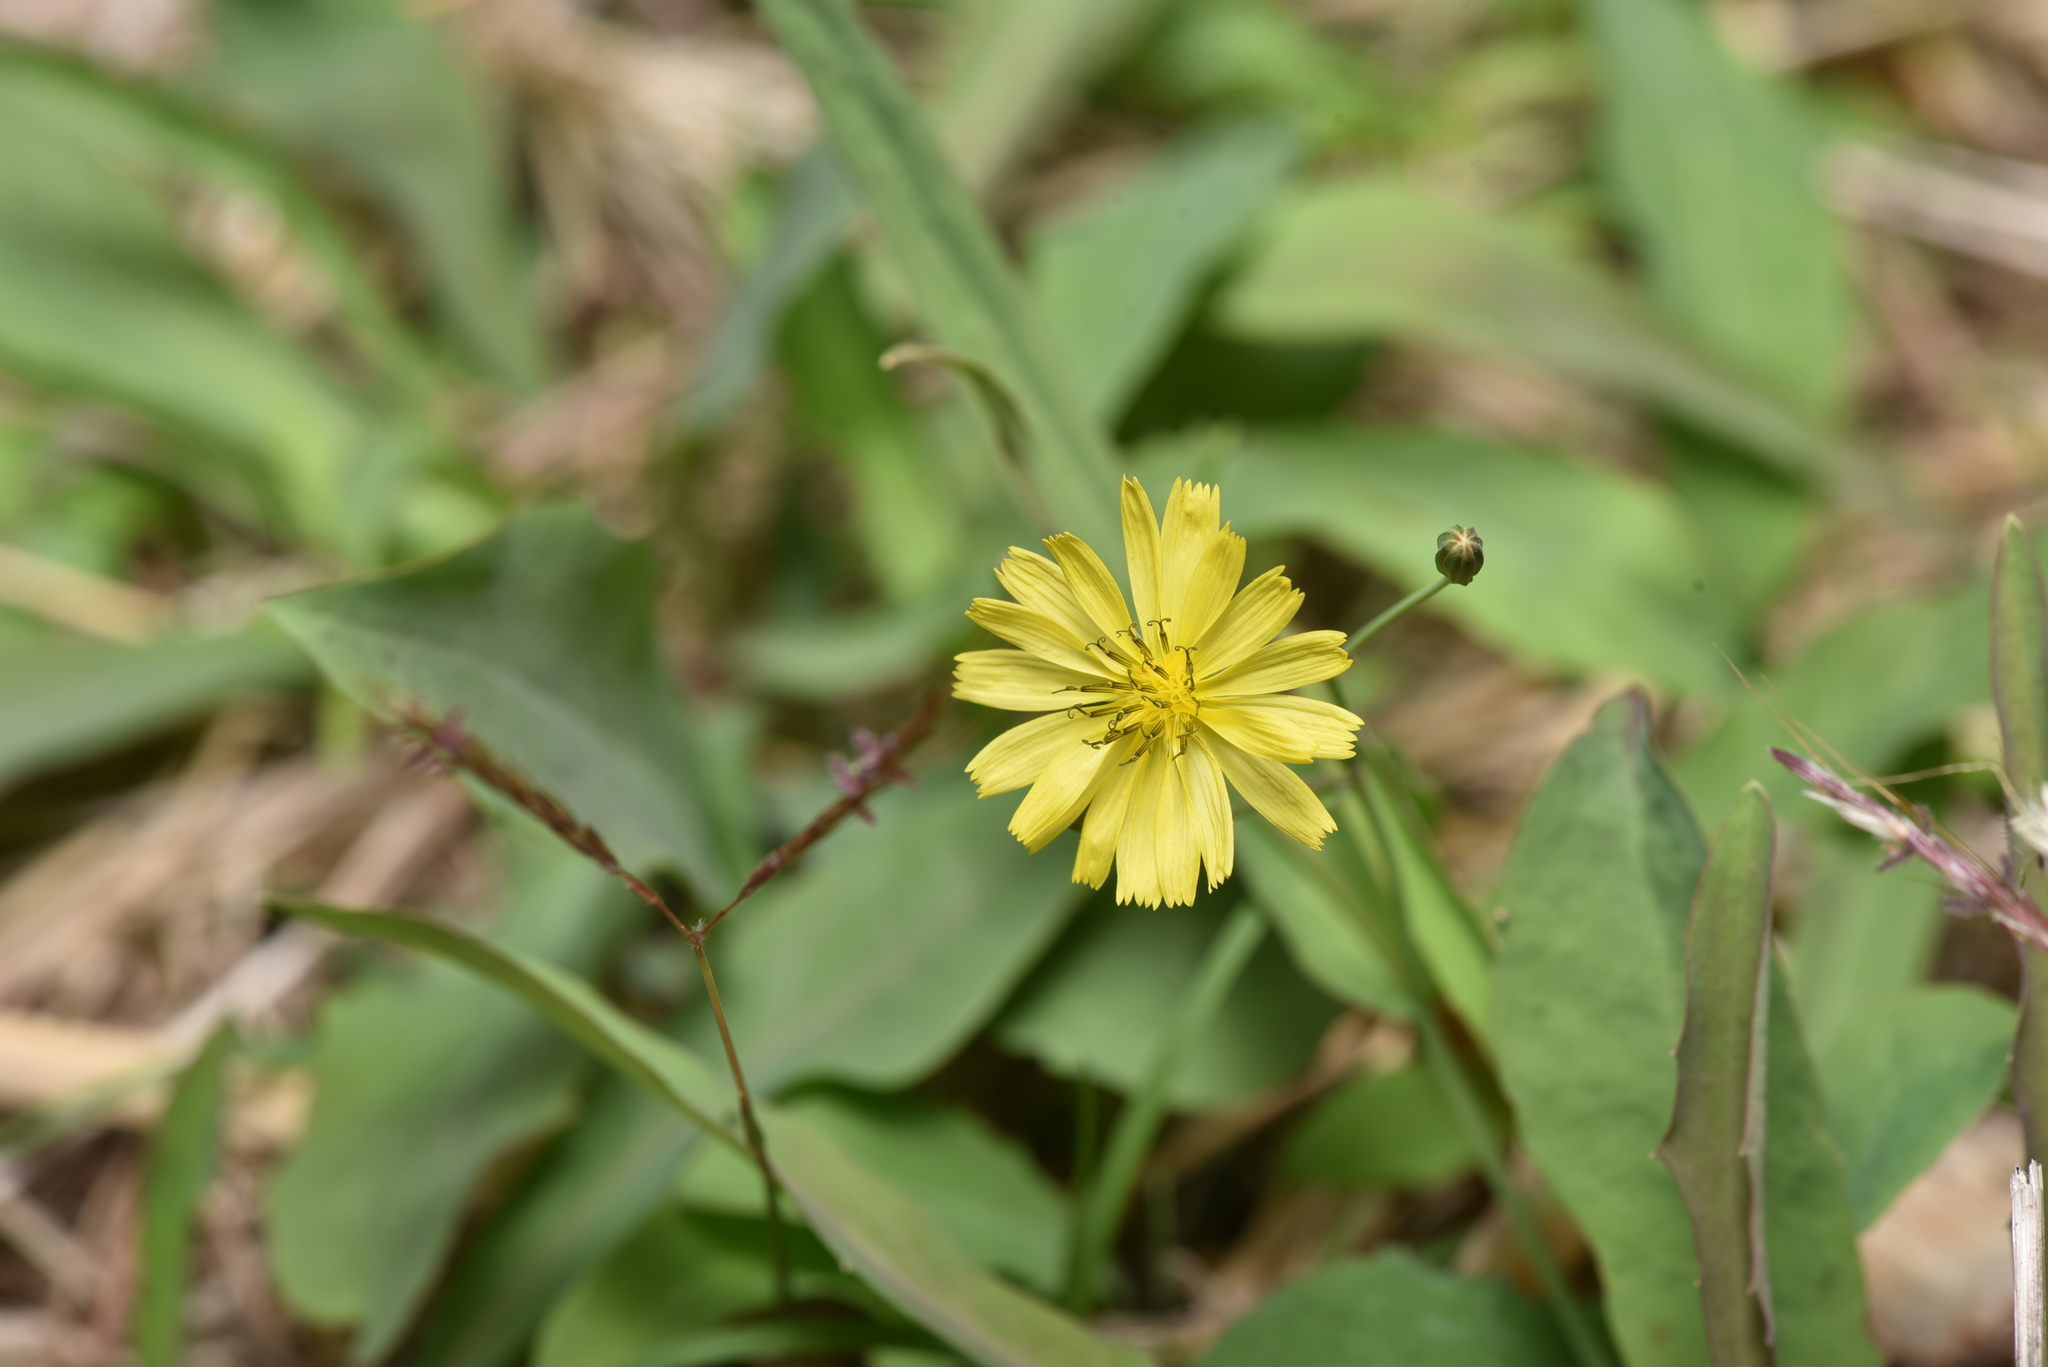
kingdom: Plantae
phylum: Tracheophyta
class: Magnoliopsida
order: Asterales
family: Asteraceae
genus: Ixeris
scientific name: Ixeris chinensis
